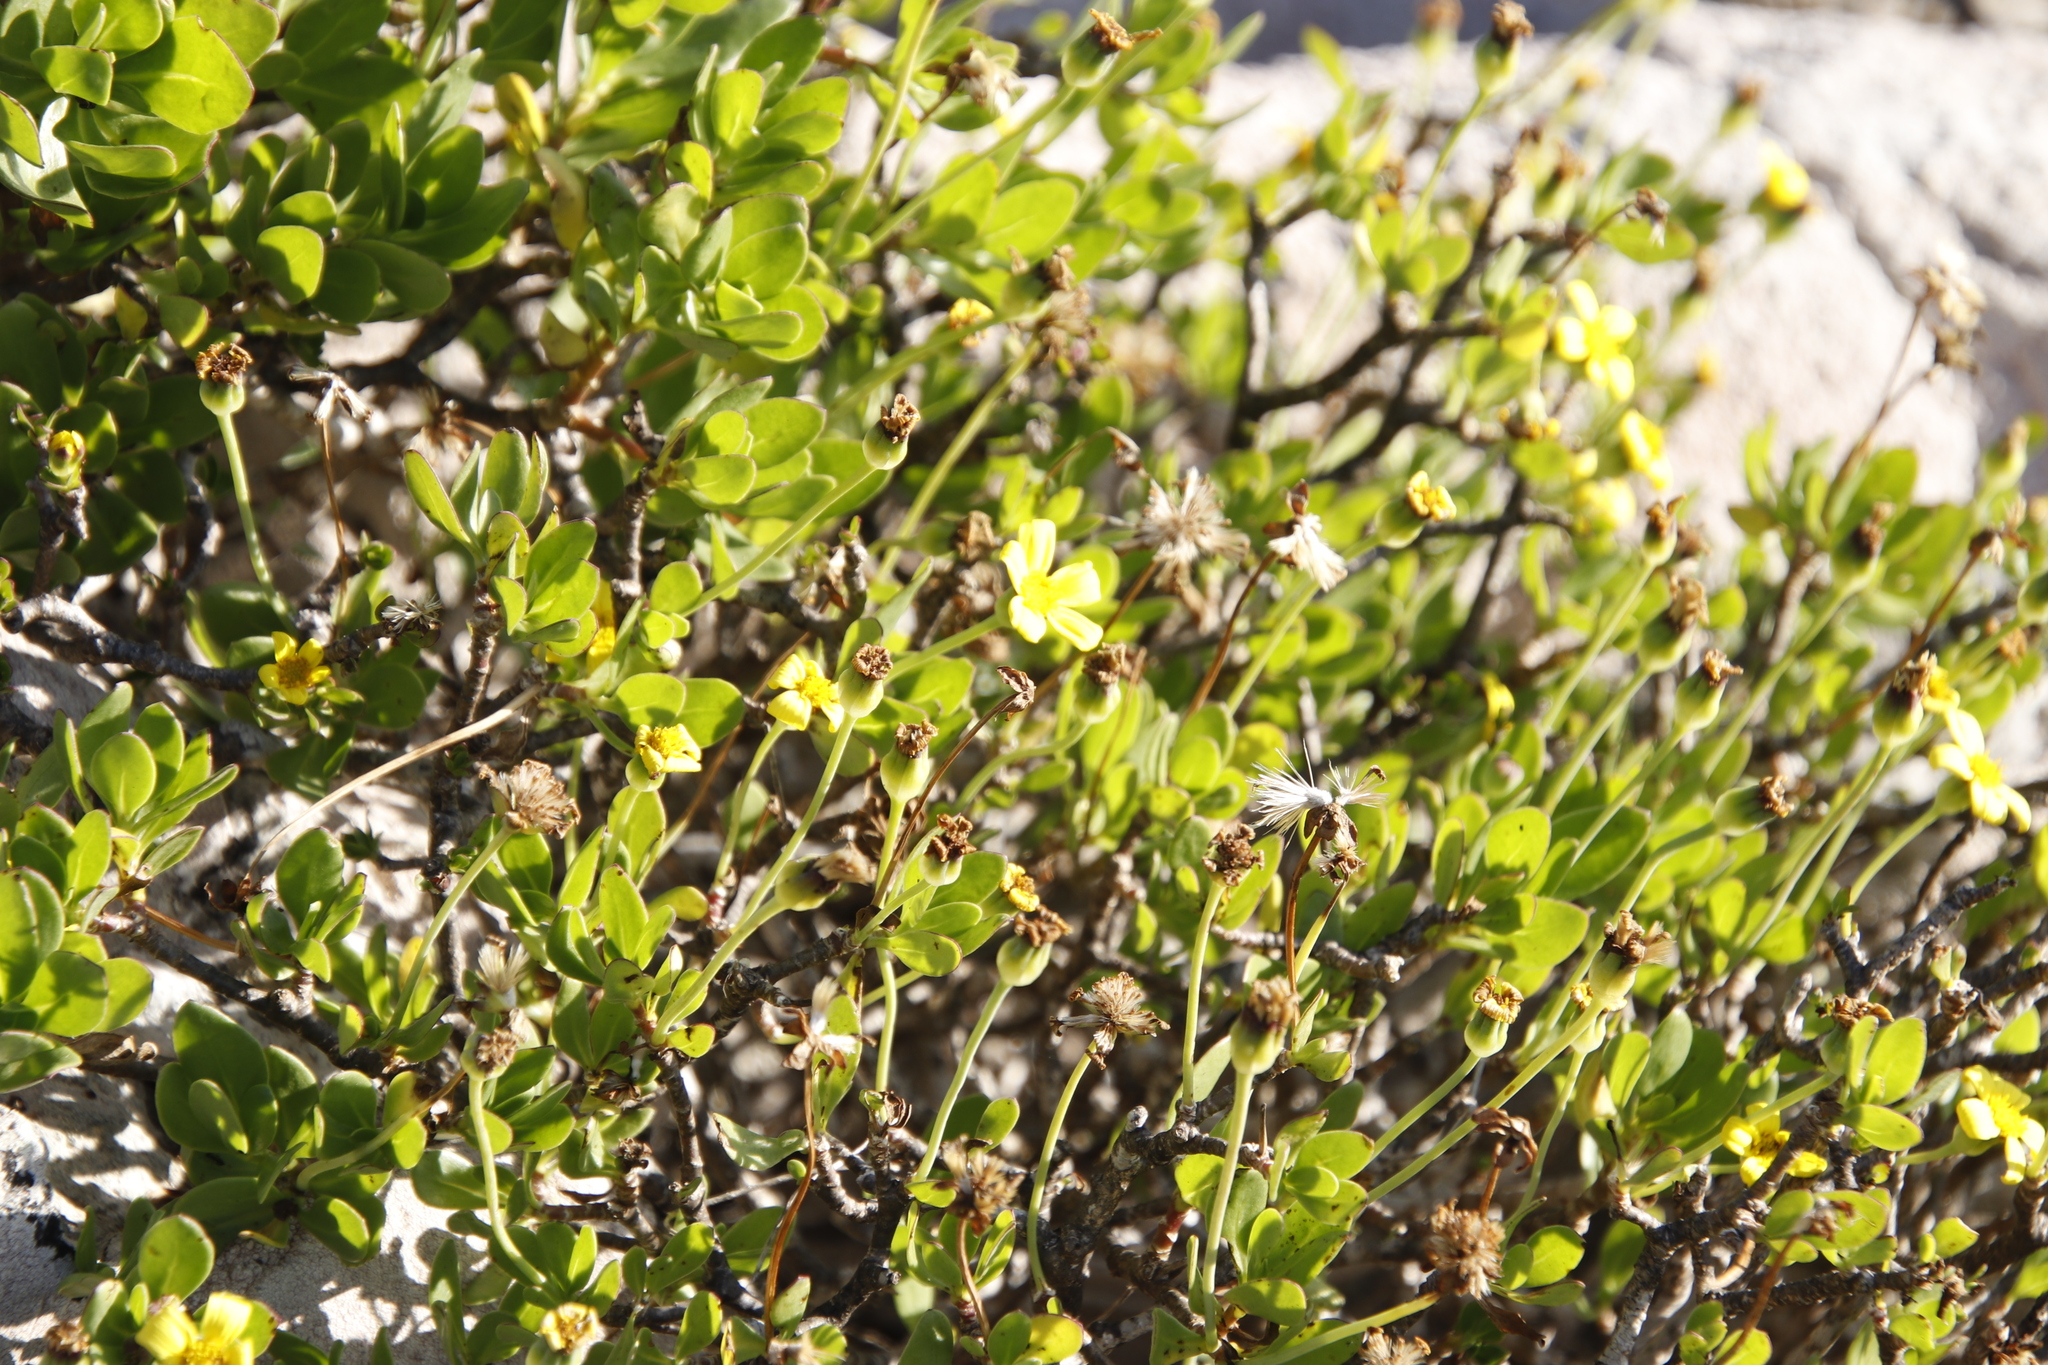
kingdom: Plantae
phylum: Tracheophyta
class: Magnoliopsida
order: Asterales
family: Asteraceae
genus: Othonna
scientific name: Othonna arborescens
